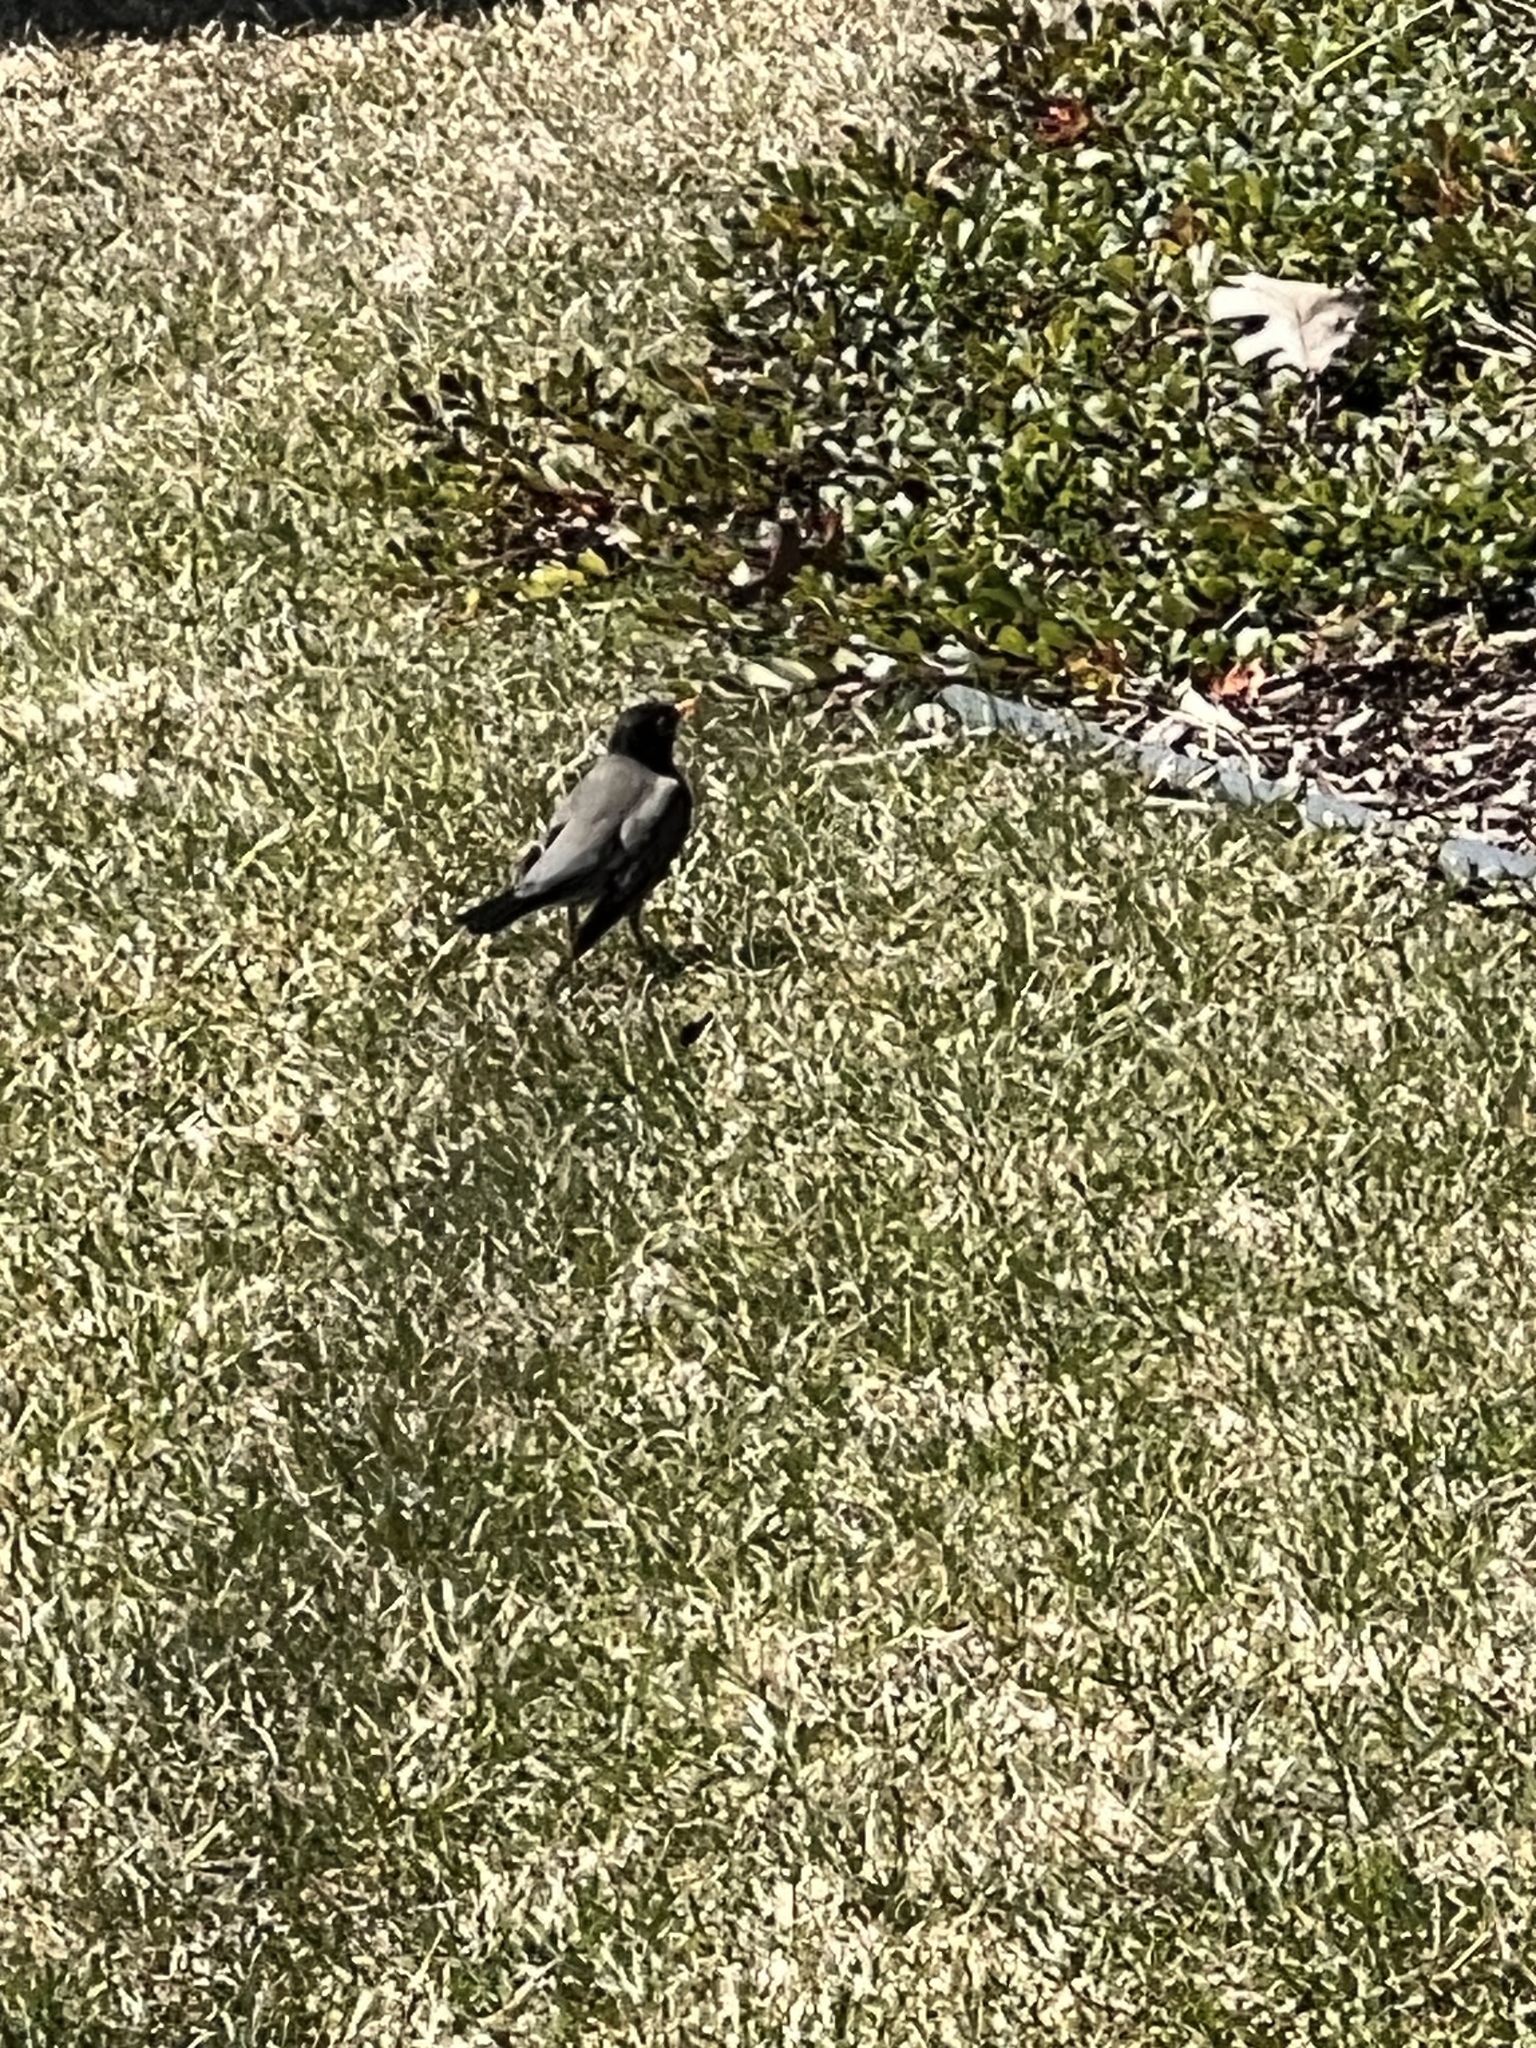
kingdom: Animalia
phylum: Chordata
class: Aves
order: Passeriformes
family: Turdidae
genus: Turdus
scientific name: Turdus migratorius
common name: American robin
